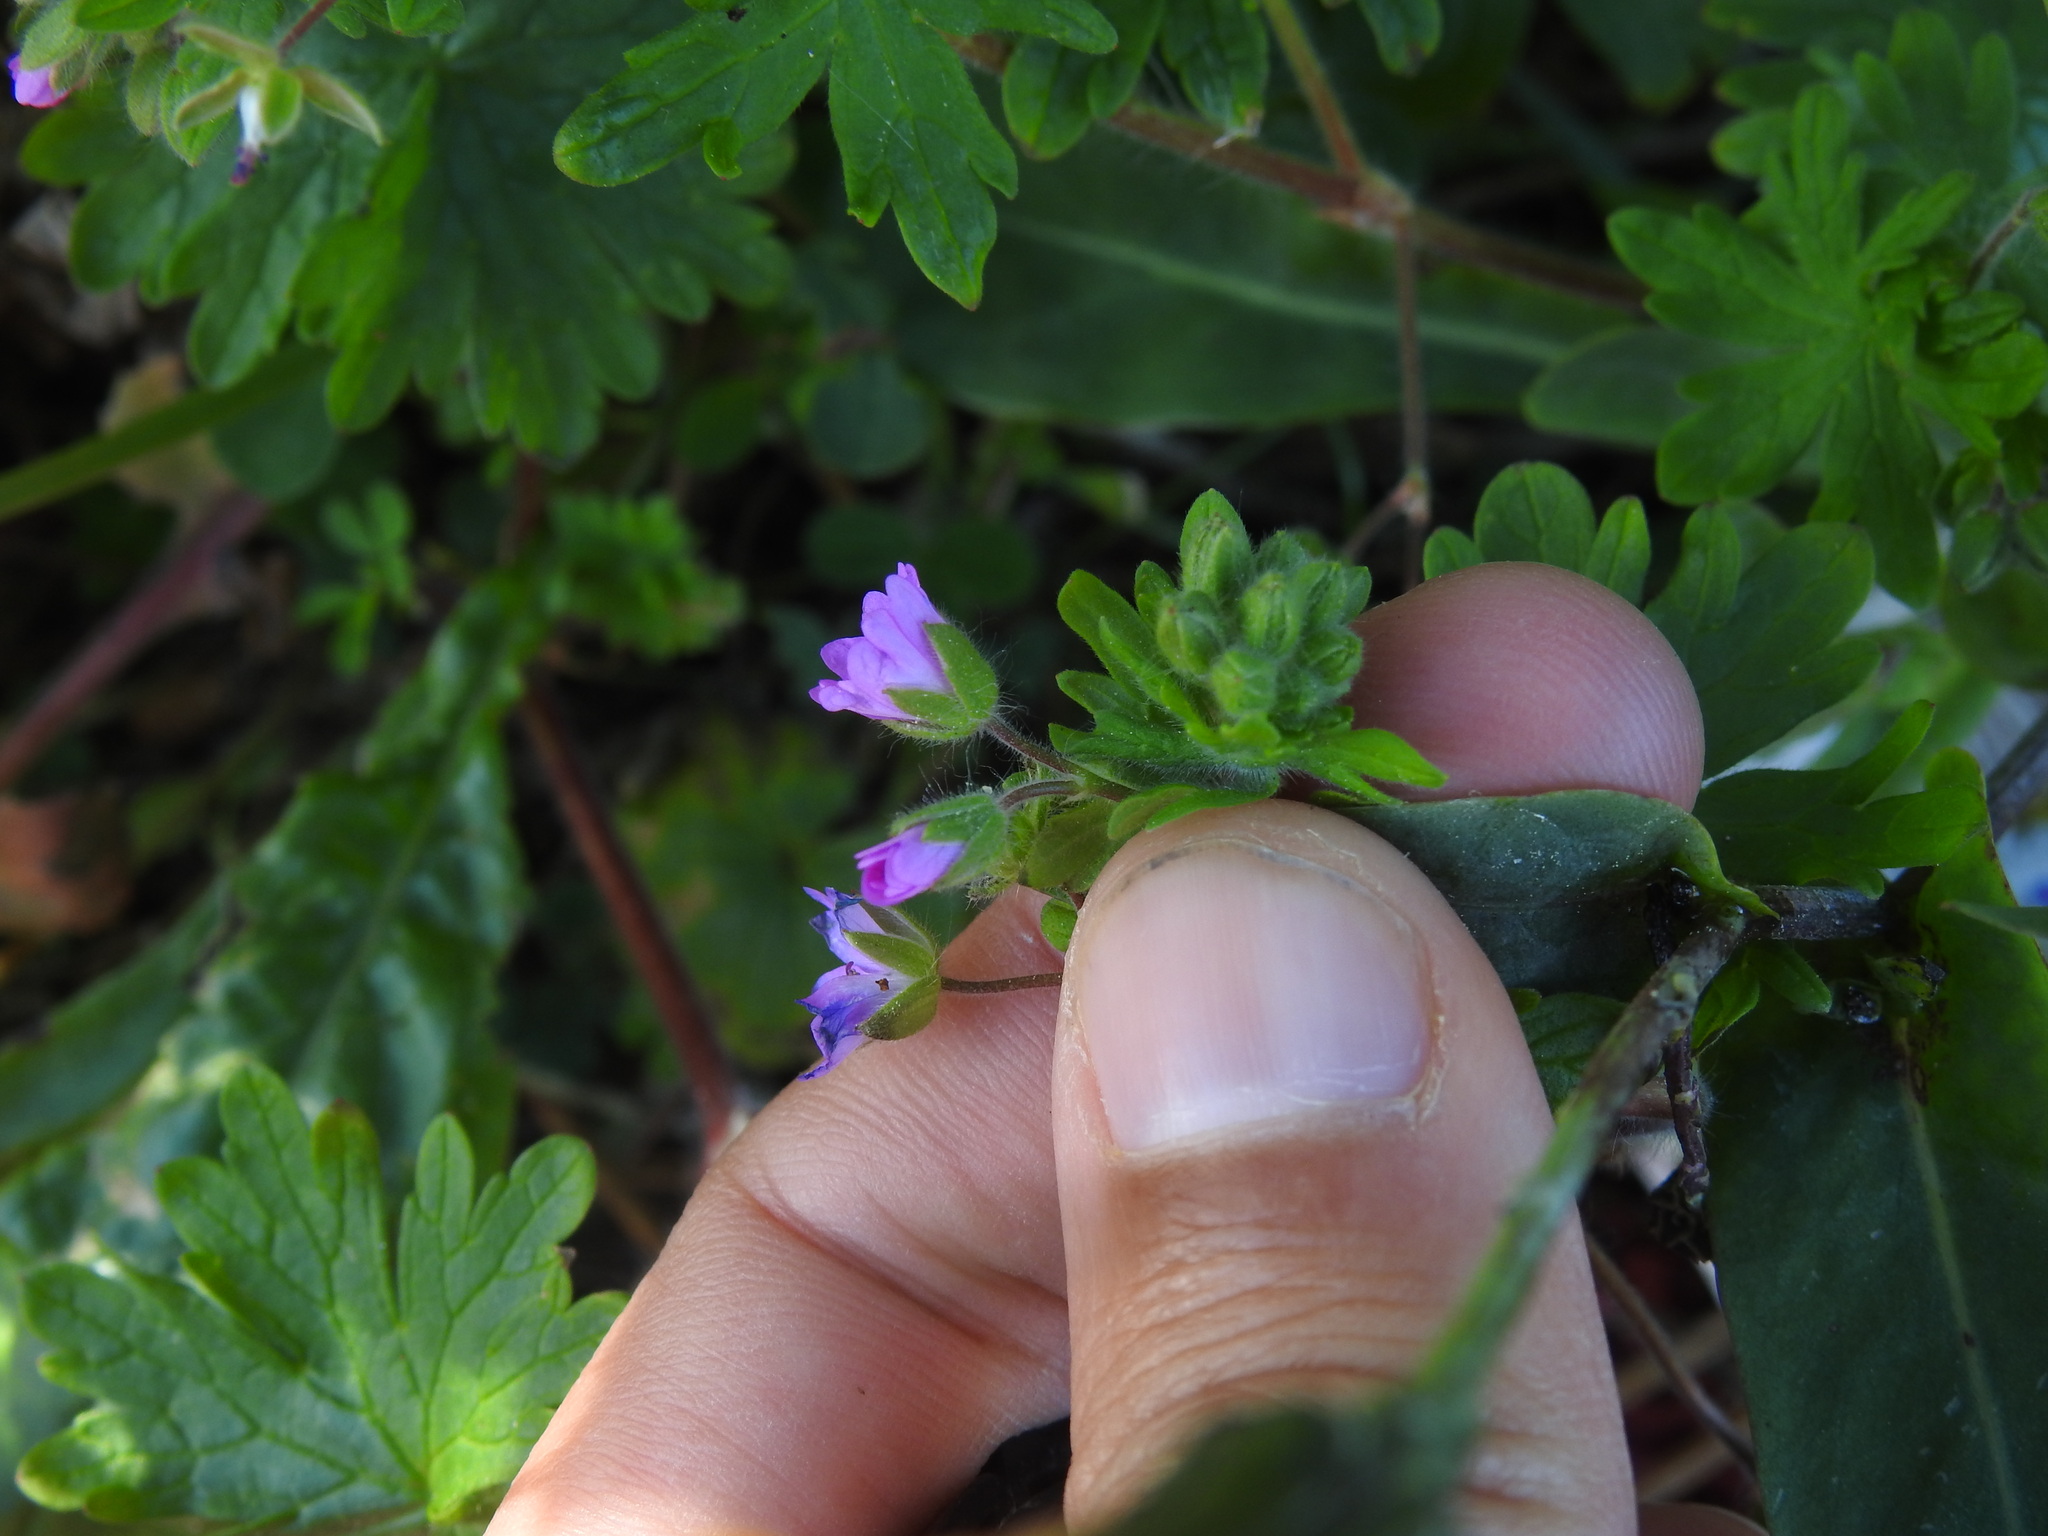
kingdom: Plantae
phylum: Tracheophyta
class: Magnoliopsida
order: Geraniales
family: Geraniaceae
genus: Geranium
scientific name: Geranium molle
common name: Dove's-foot crane's-bill
